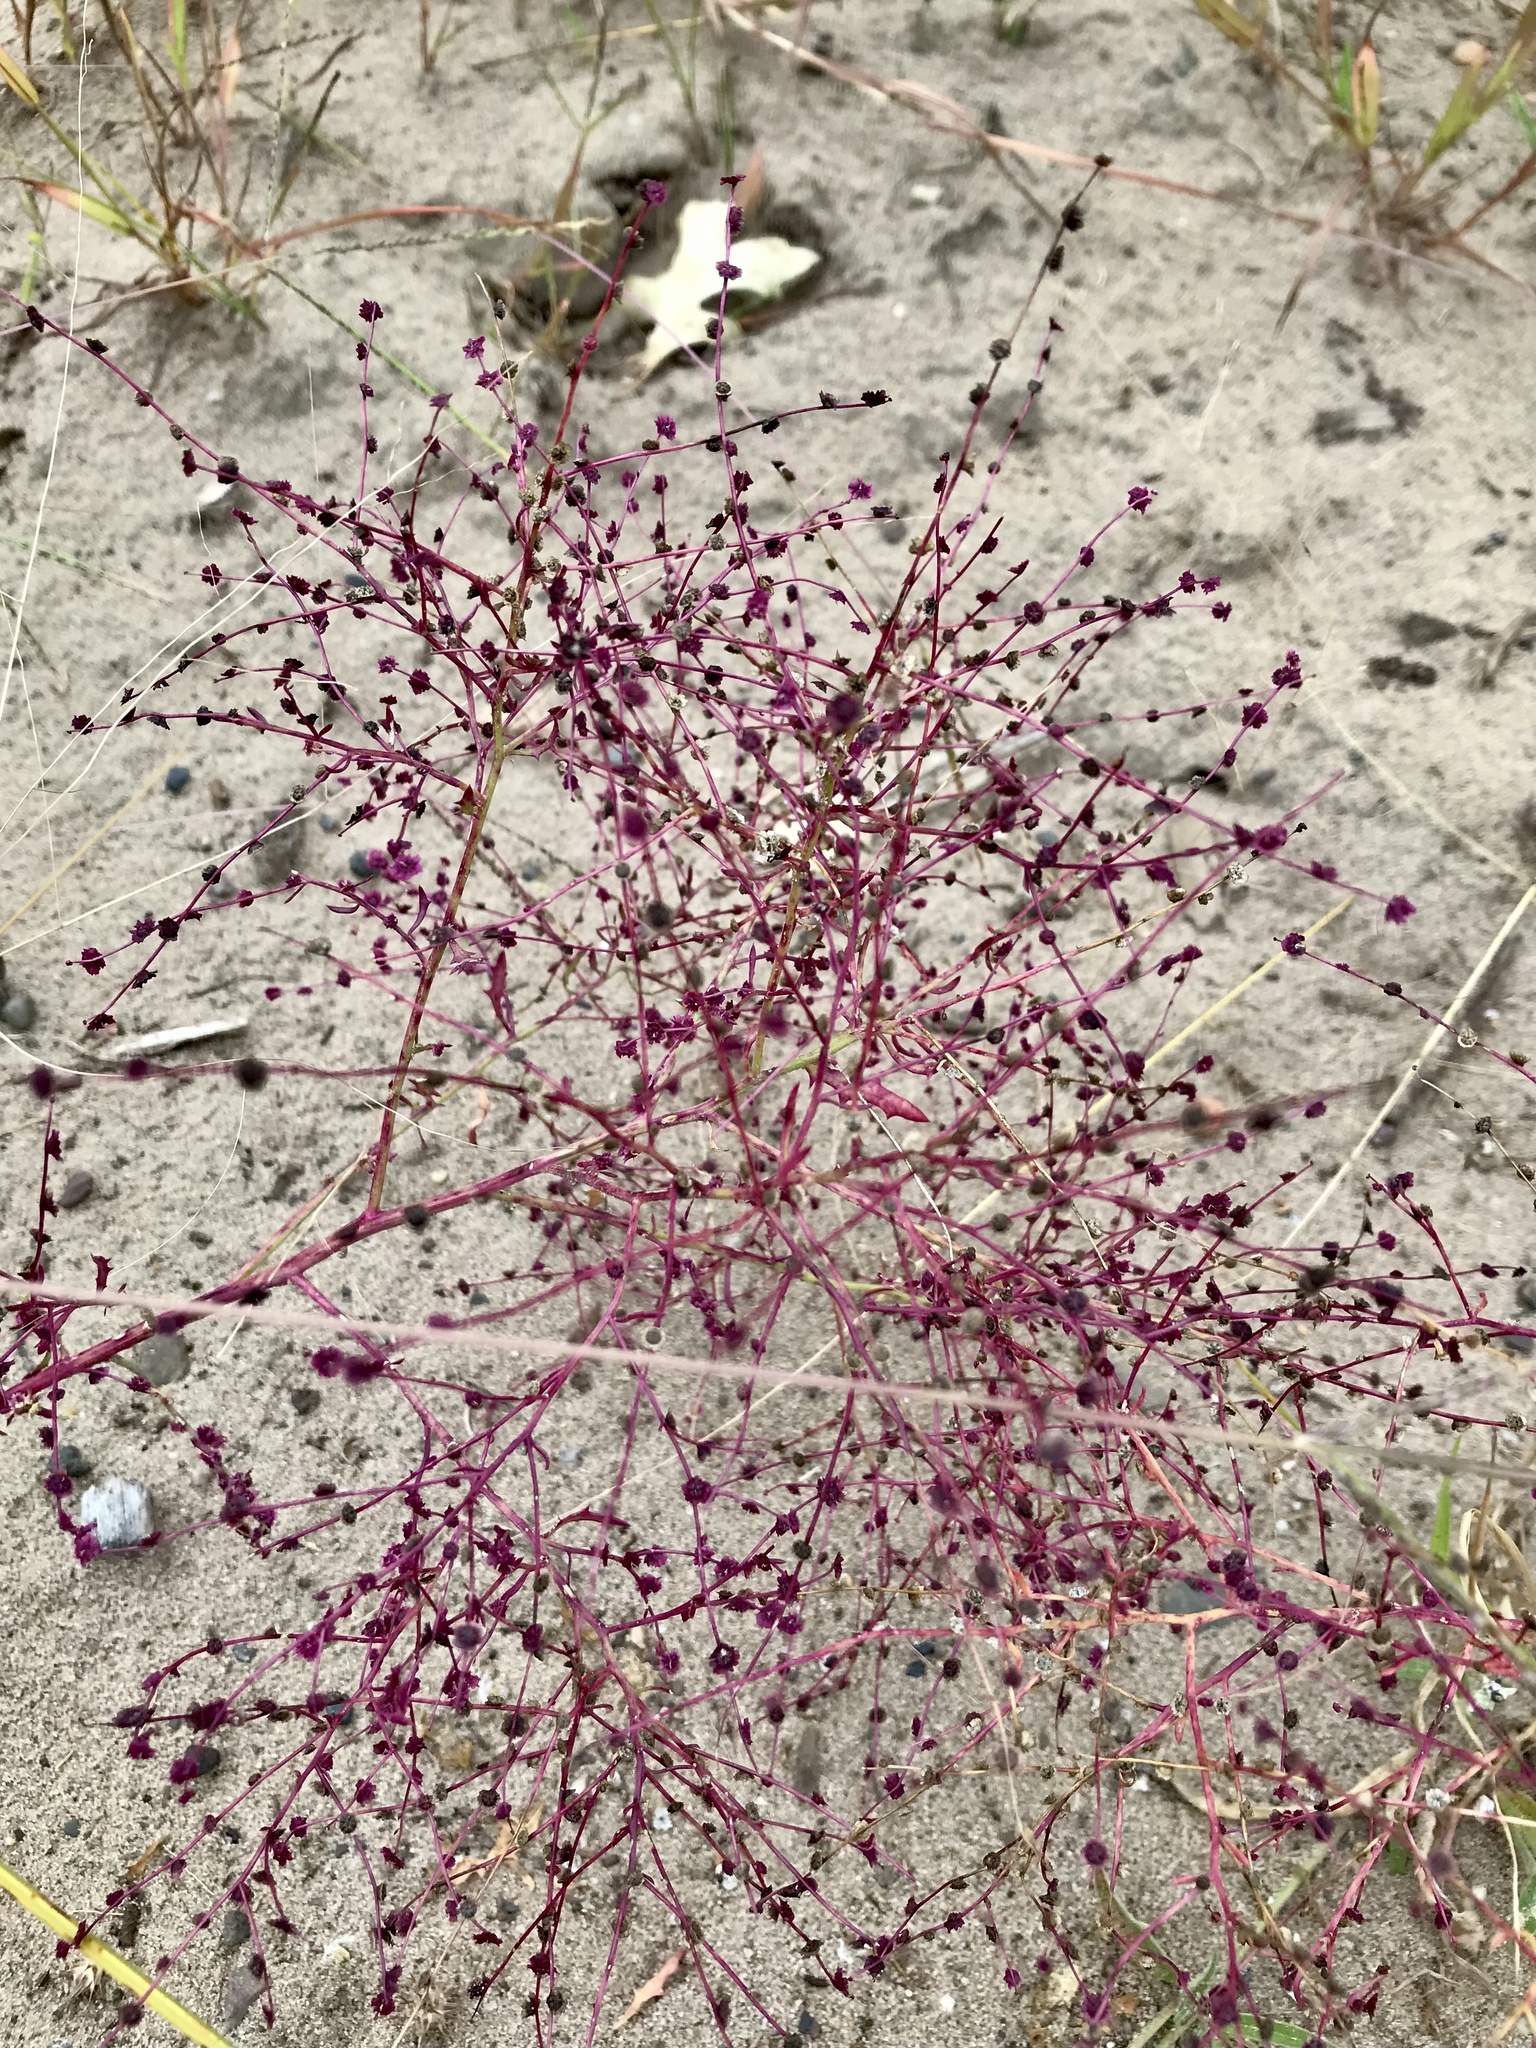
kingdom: Plantae
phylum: Tracheophyta
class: Magnoliopsida
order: Caryophyllales
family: Amaranthaceae
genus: Dysphania
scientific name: Dysphania atriplicifolia
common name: Plains tumbleweed
